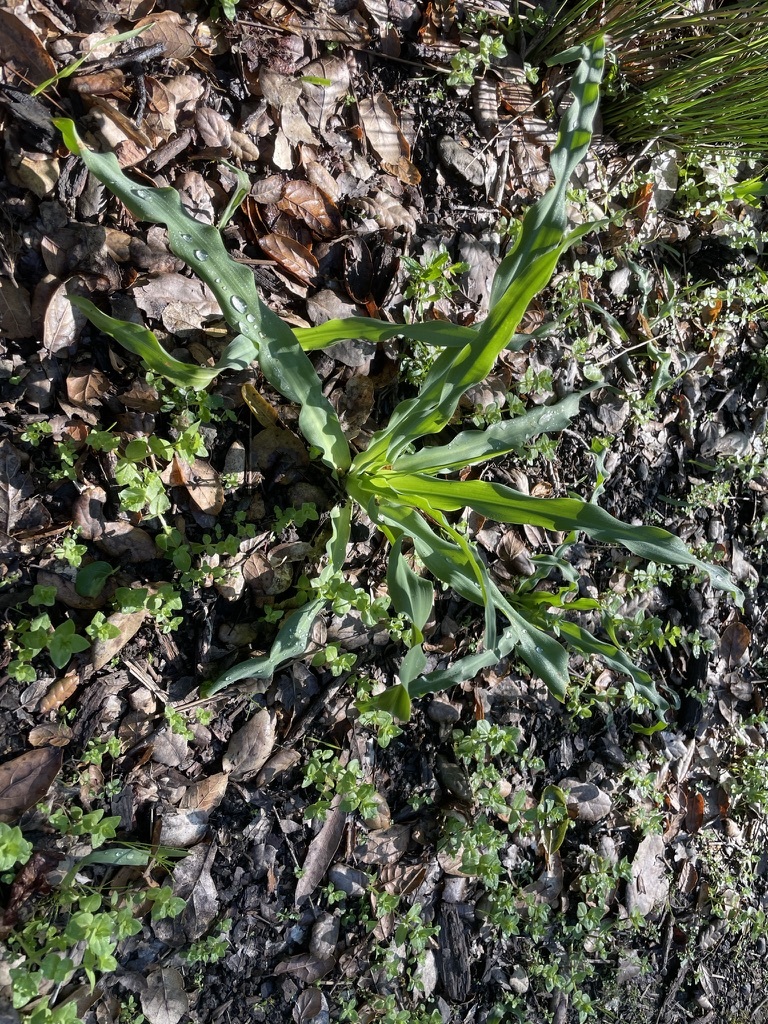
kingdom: Plantae
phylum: Tracheophyta
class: Liliopsida
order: Asparagales
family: Asparagaceae
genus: Chlorogalum
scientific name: Chlorogalum pomeridianum
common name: Amole
